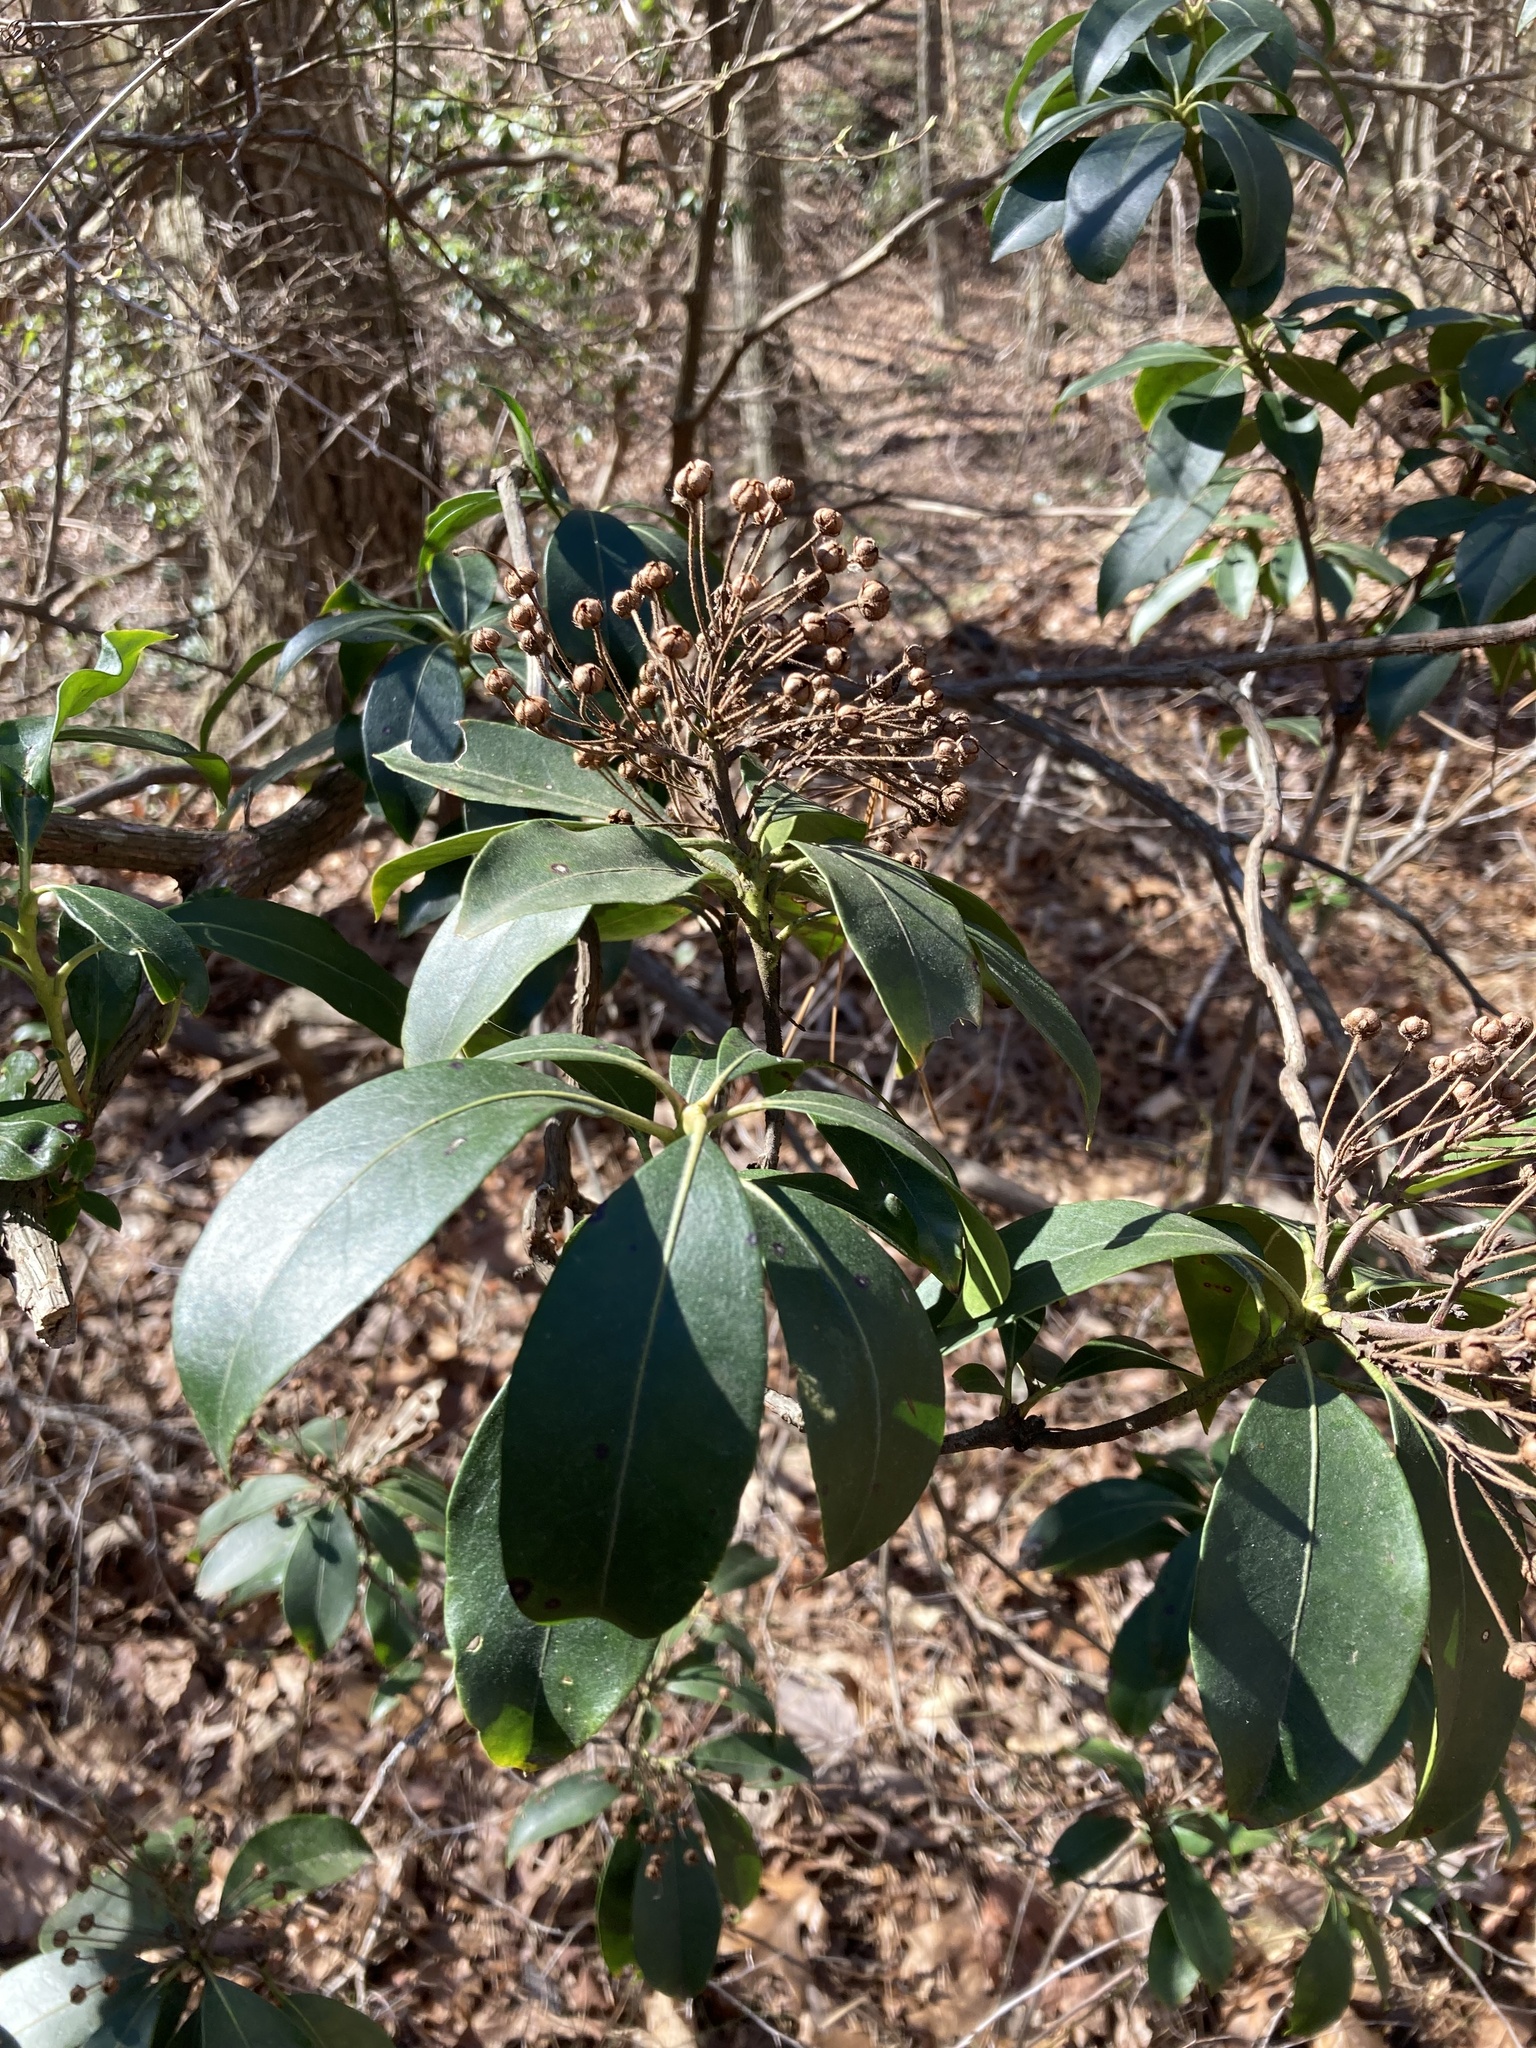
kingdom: Plantae
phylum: Tracheophyta
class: Magnoliopsida
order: Ericales
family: Ericaceae
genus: Kalmia
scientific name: Kalmia latifolia
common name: Mountain-laurel
